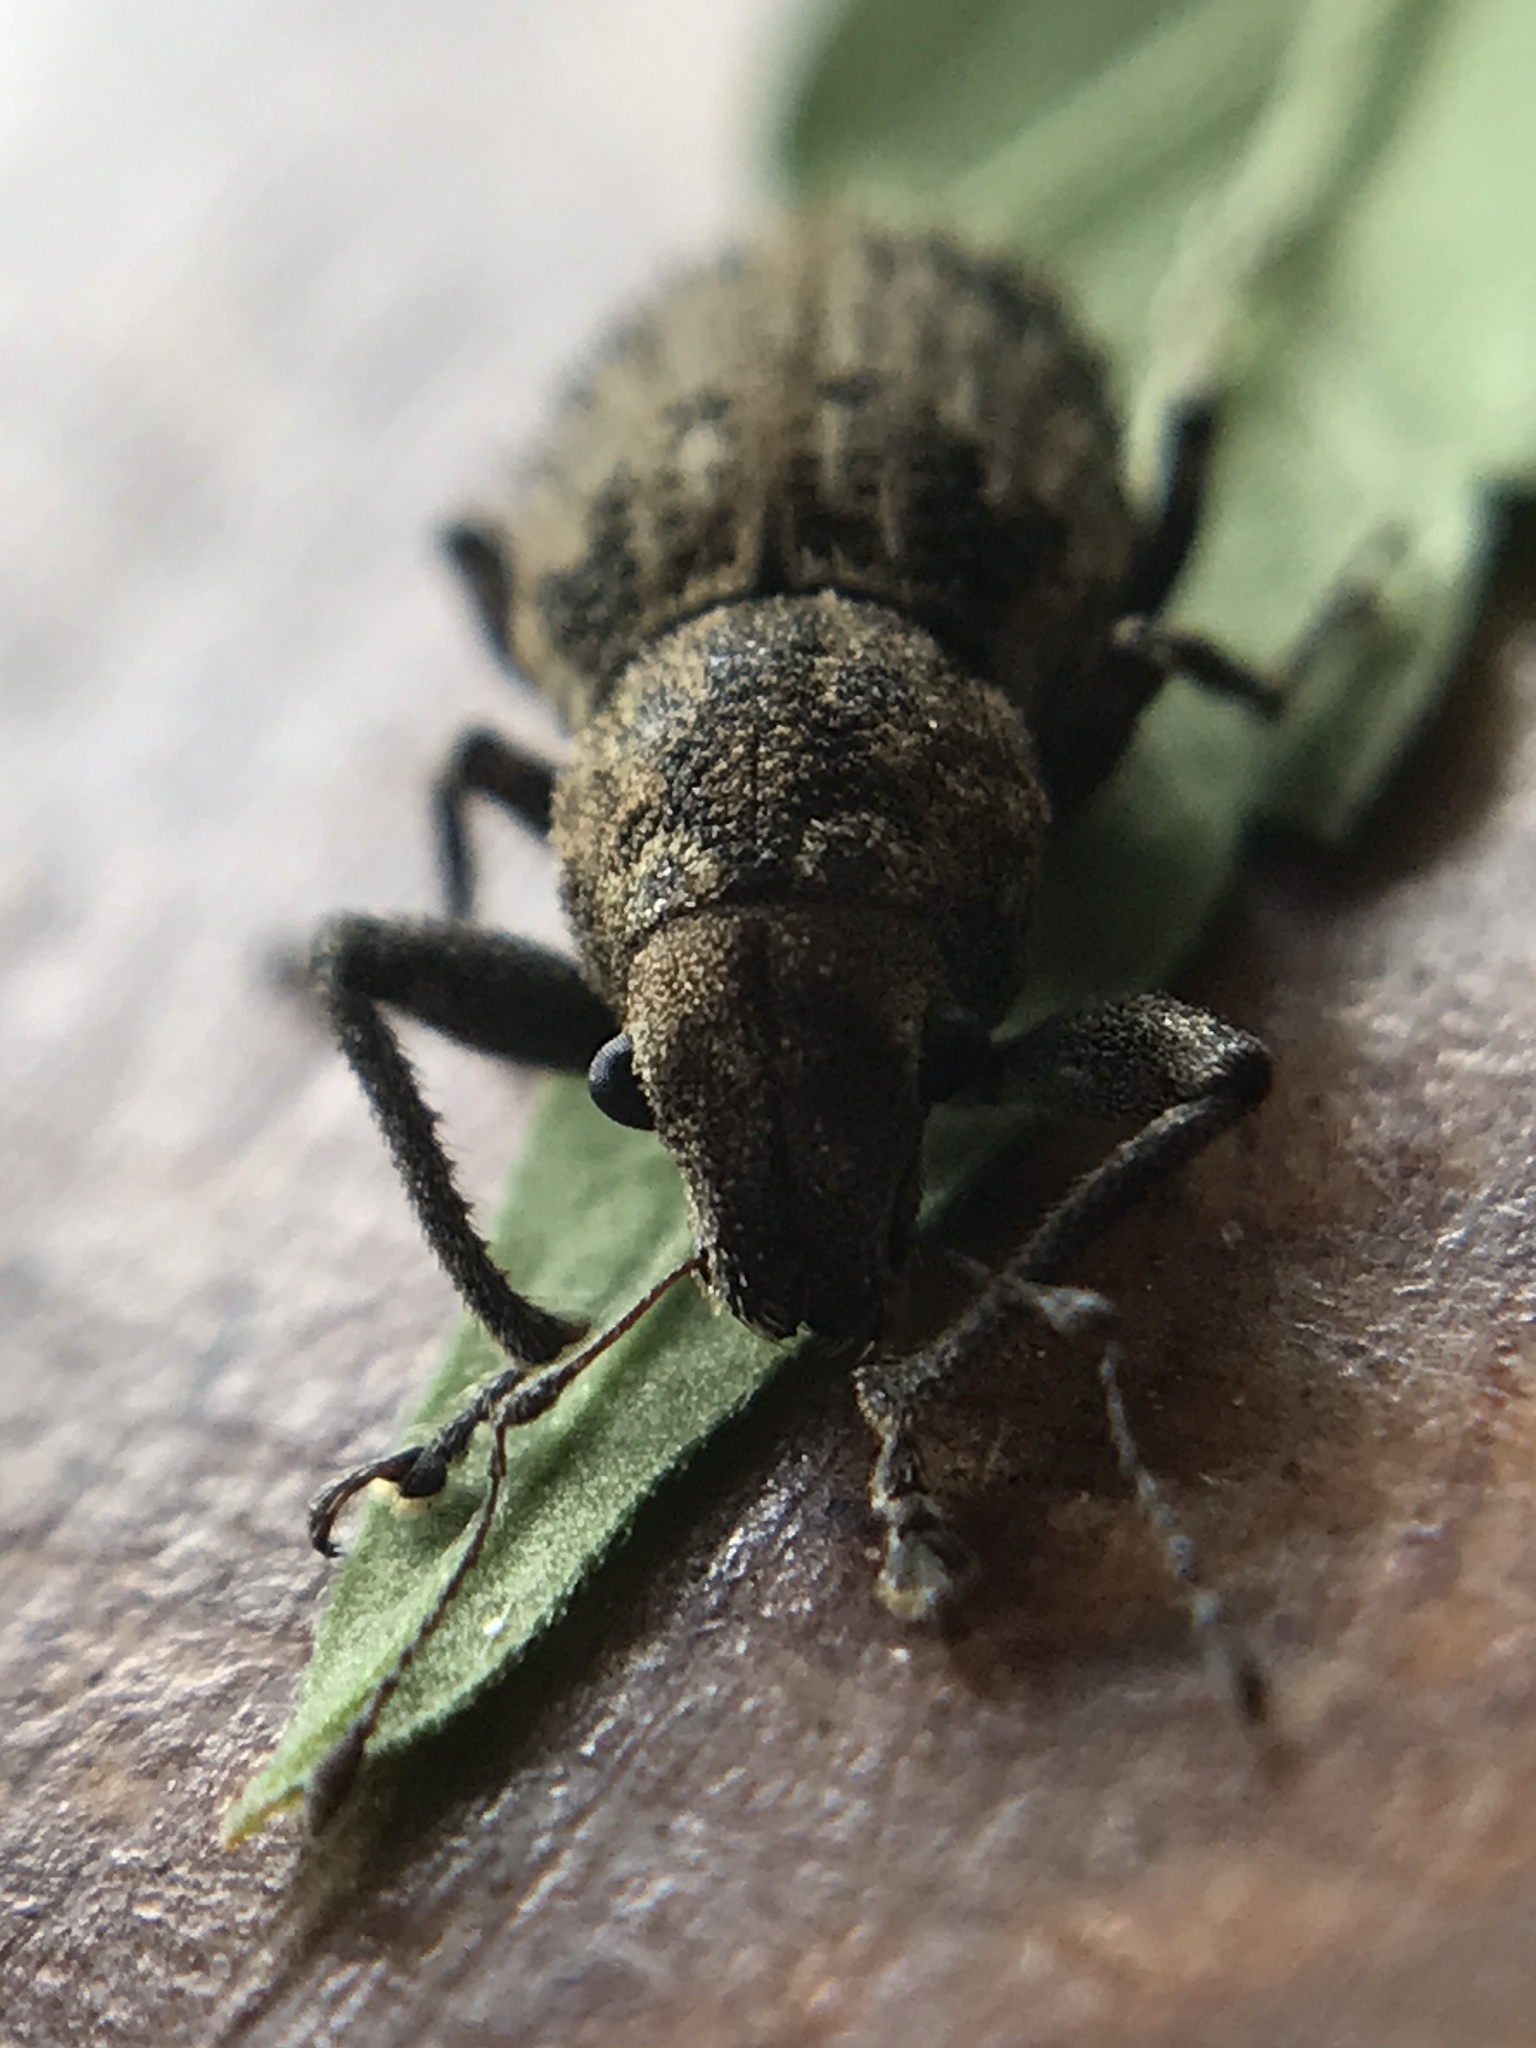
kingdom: Animalia
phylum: Arthropoda
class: Insecta
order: Coleoptera
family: Curculionidae
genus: Pantomorus
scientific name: Pantomorus
